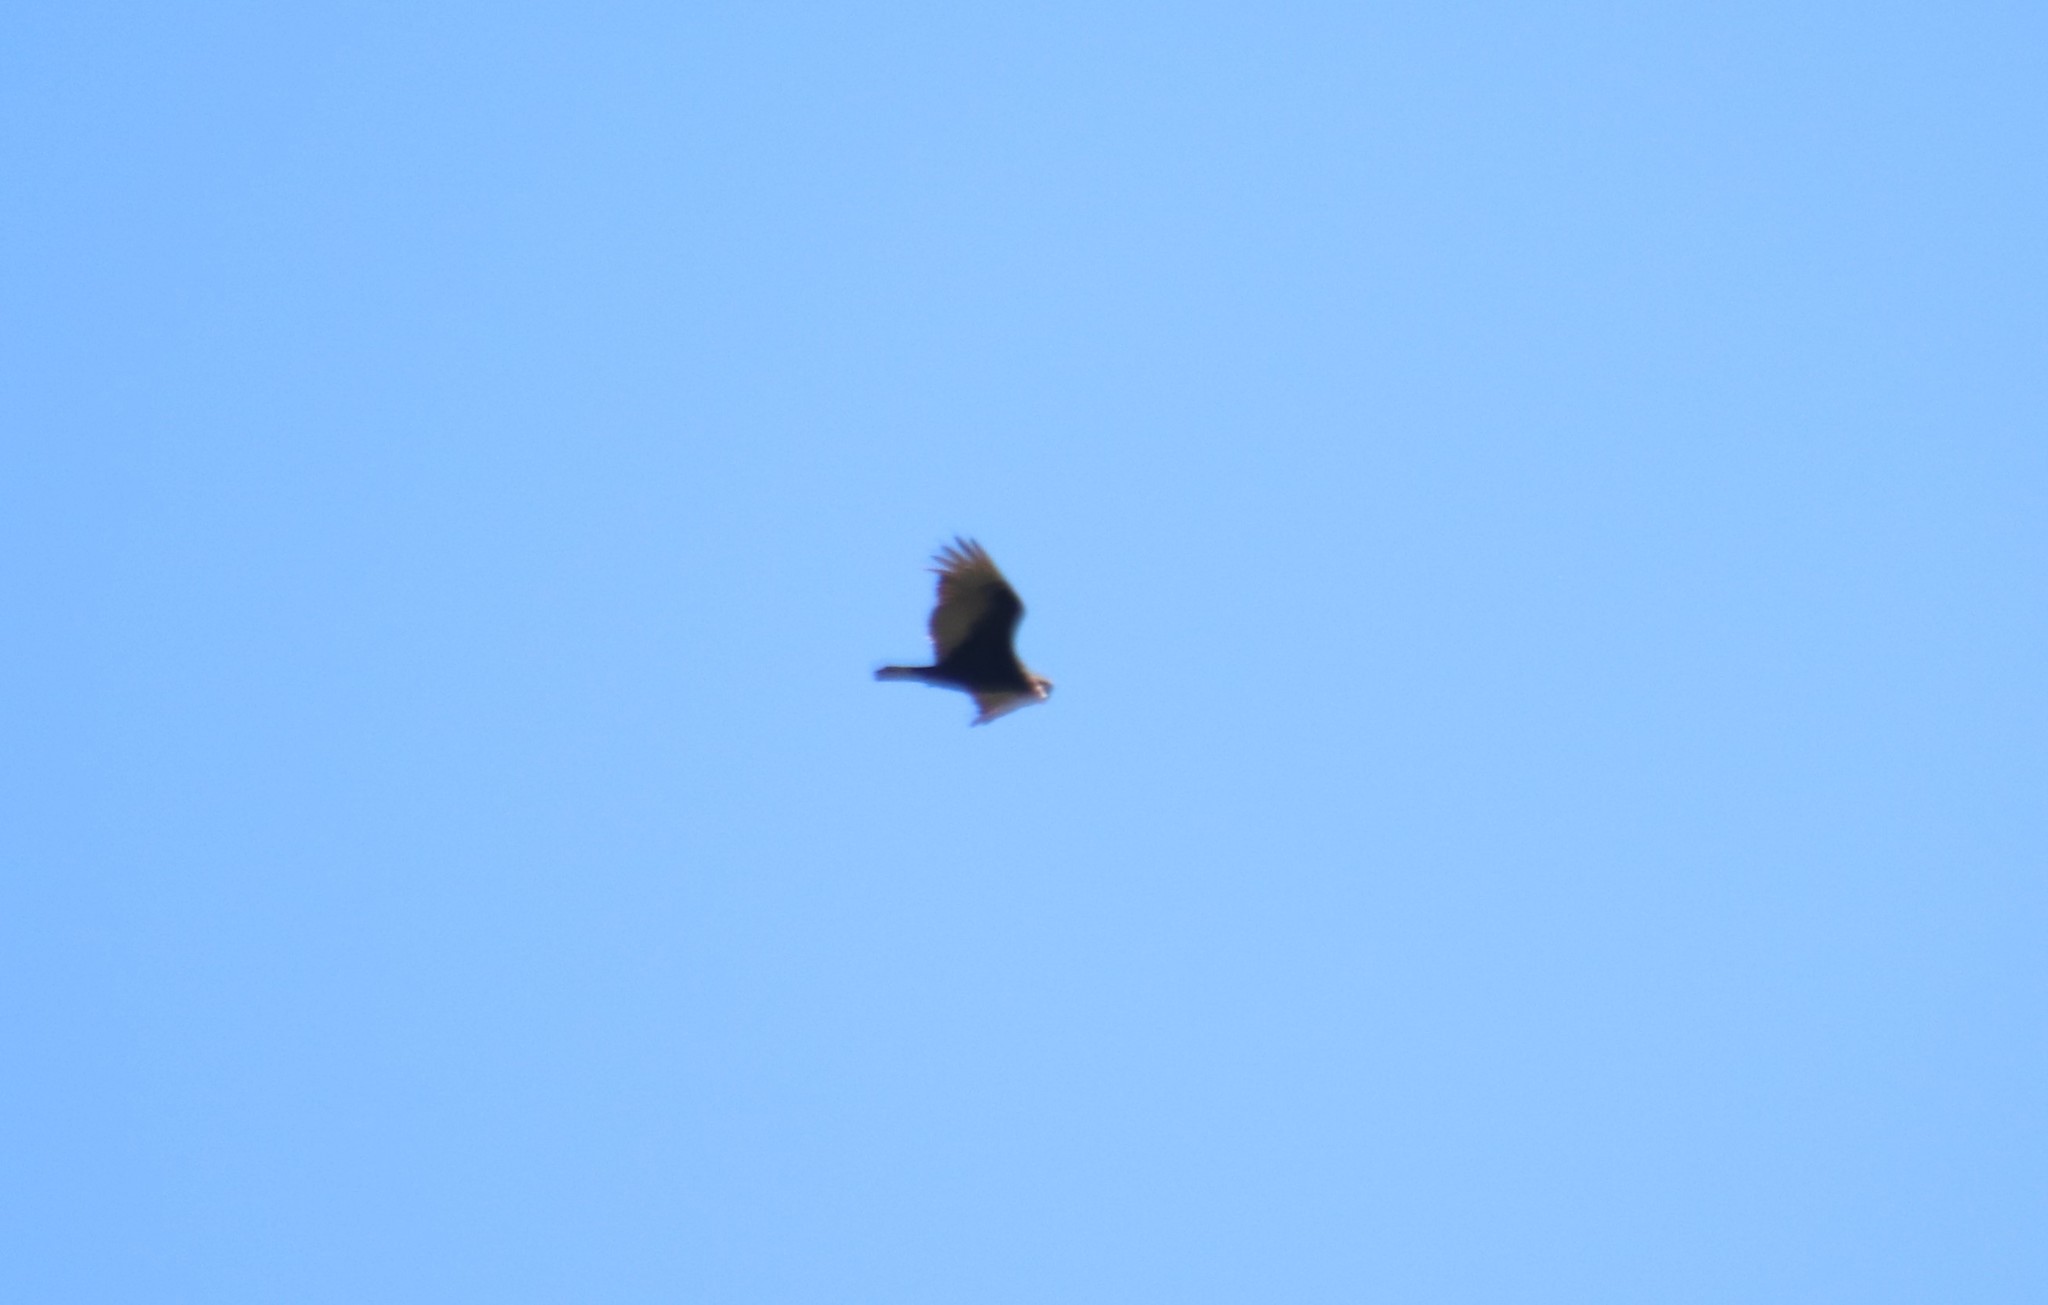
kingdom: Animalia
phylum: Chordata
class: Aves
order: Accipitriformes
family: Cathartidae
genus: Cathartes
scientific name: Cathartes aura
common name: Turkey vulture
